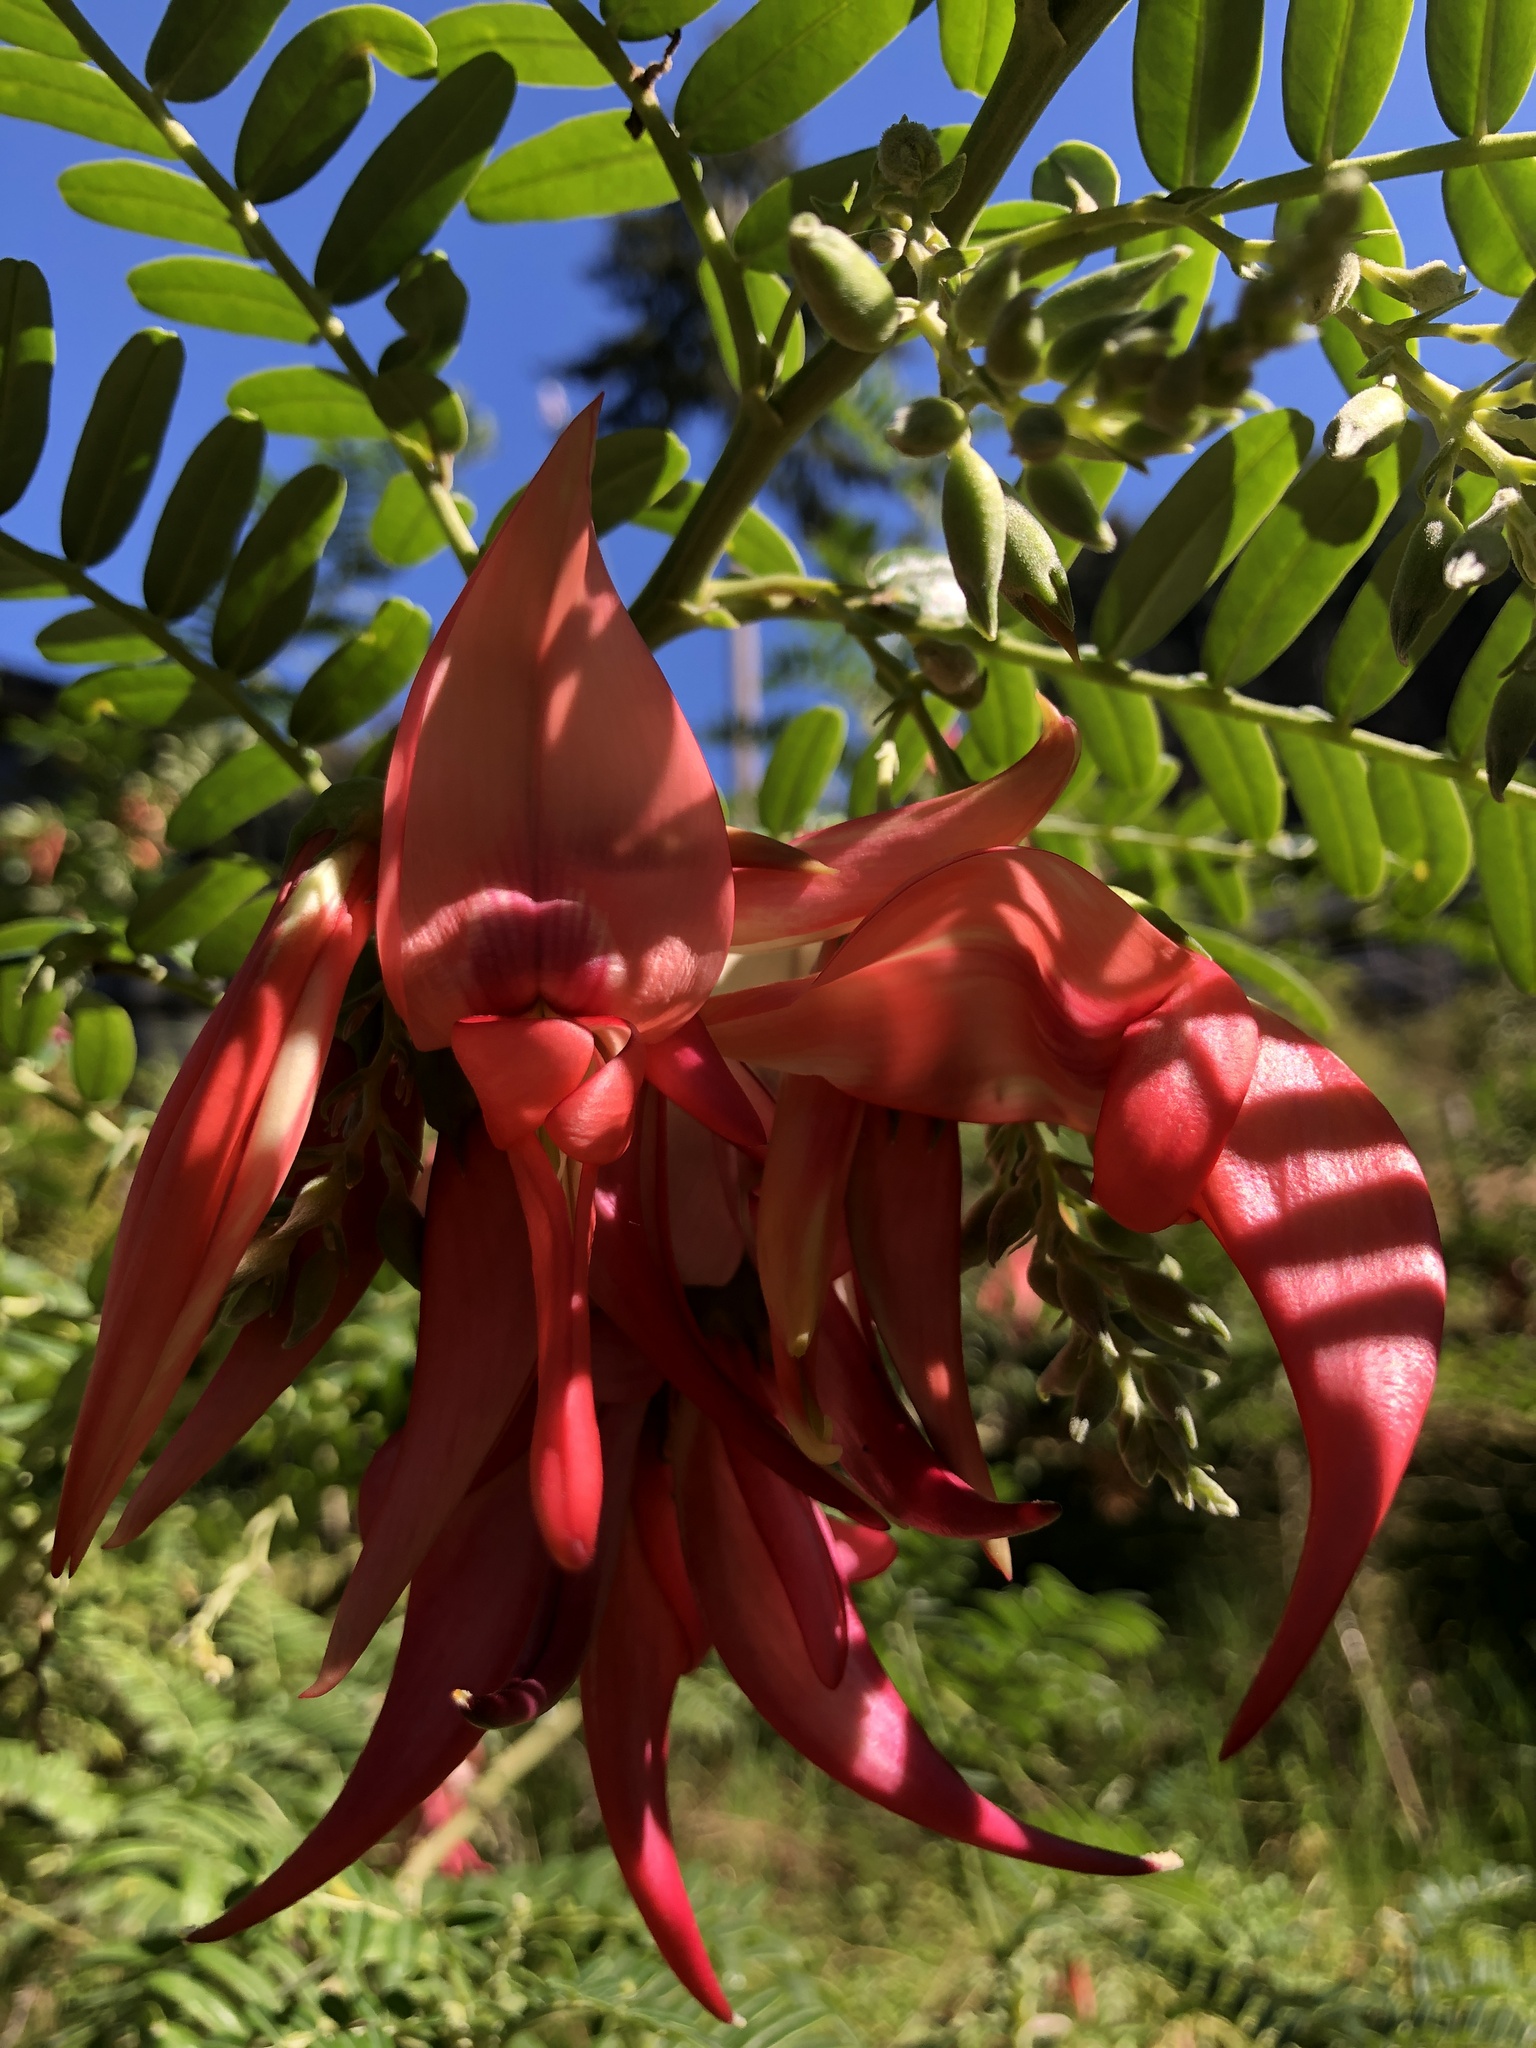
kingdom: Plantae
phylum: Tracheophyta
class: Magnoliopsida
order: Fabales
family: Fabaceae
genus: Clianthus
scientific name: Clianthus puniceus
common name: Kaka-beak
